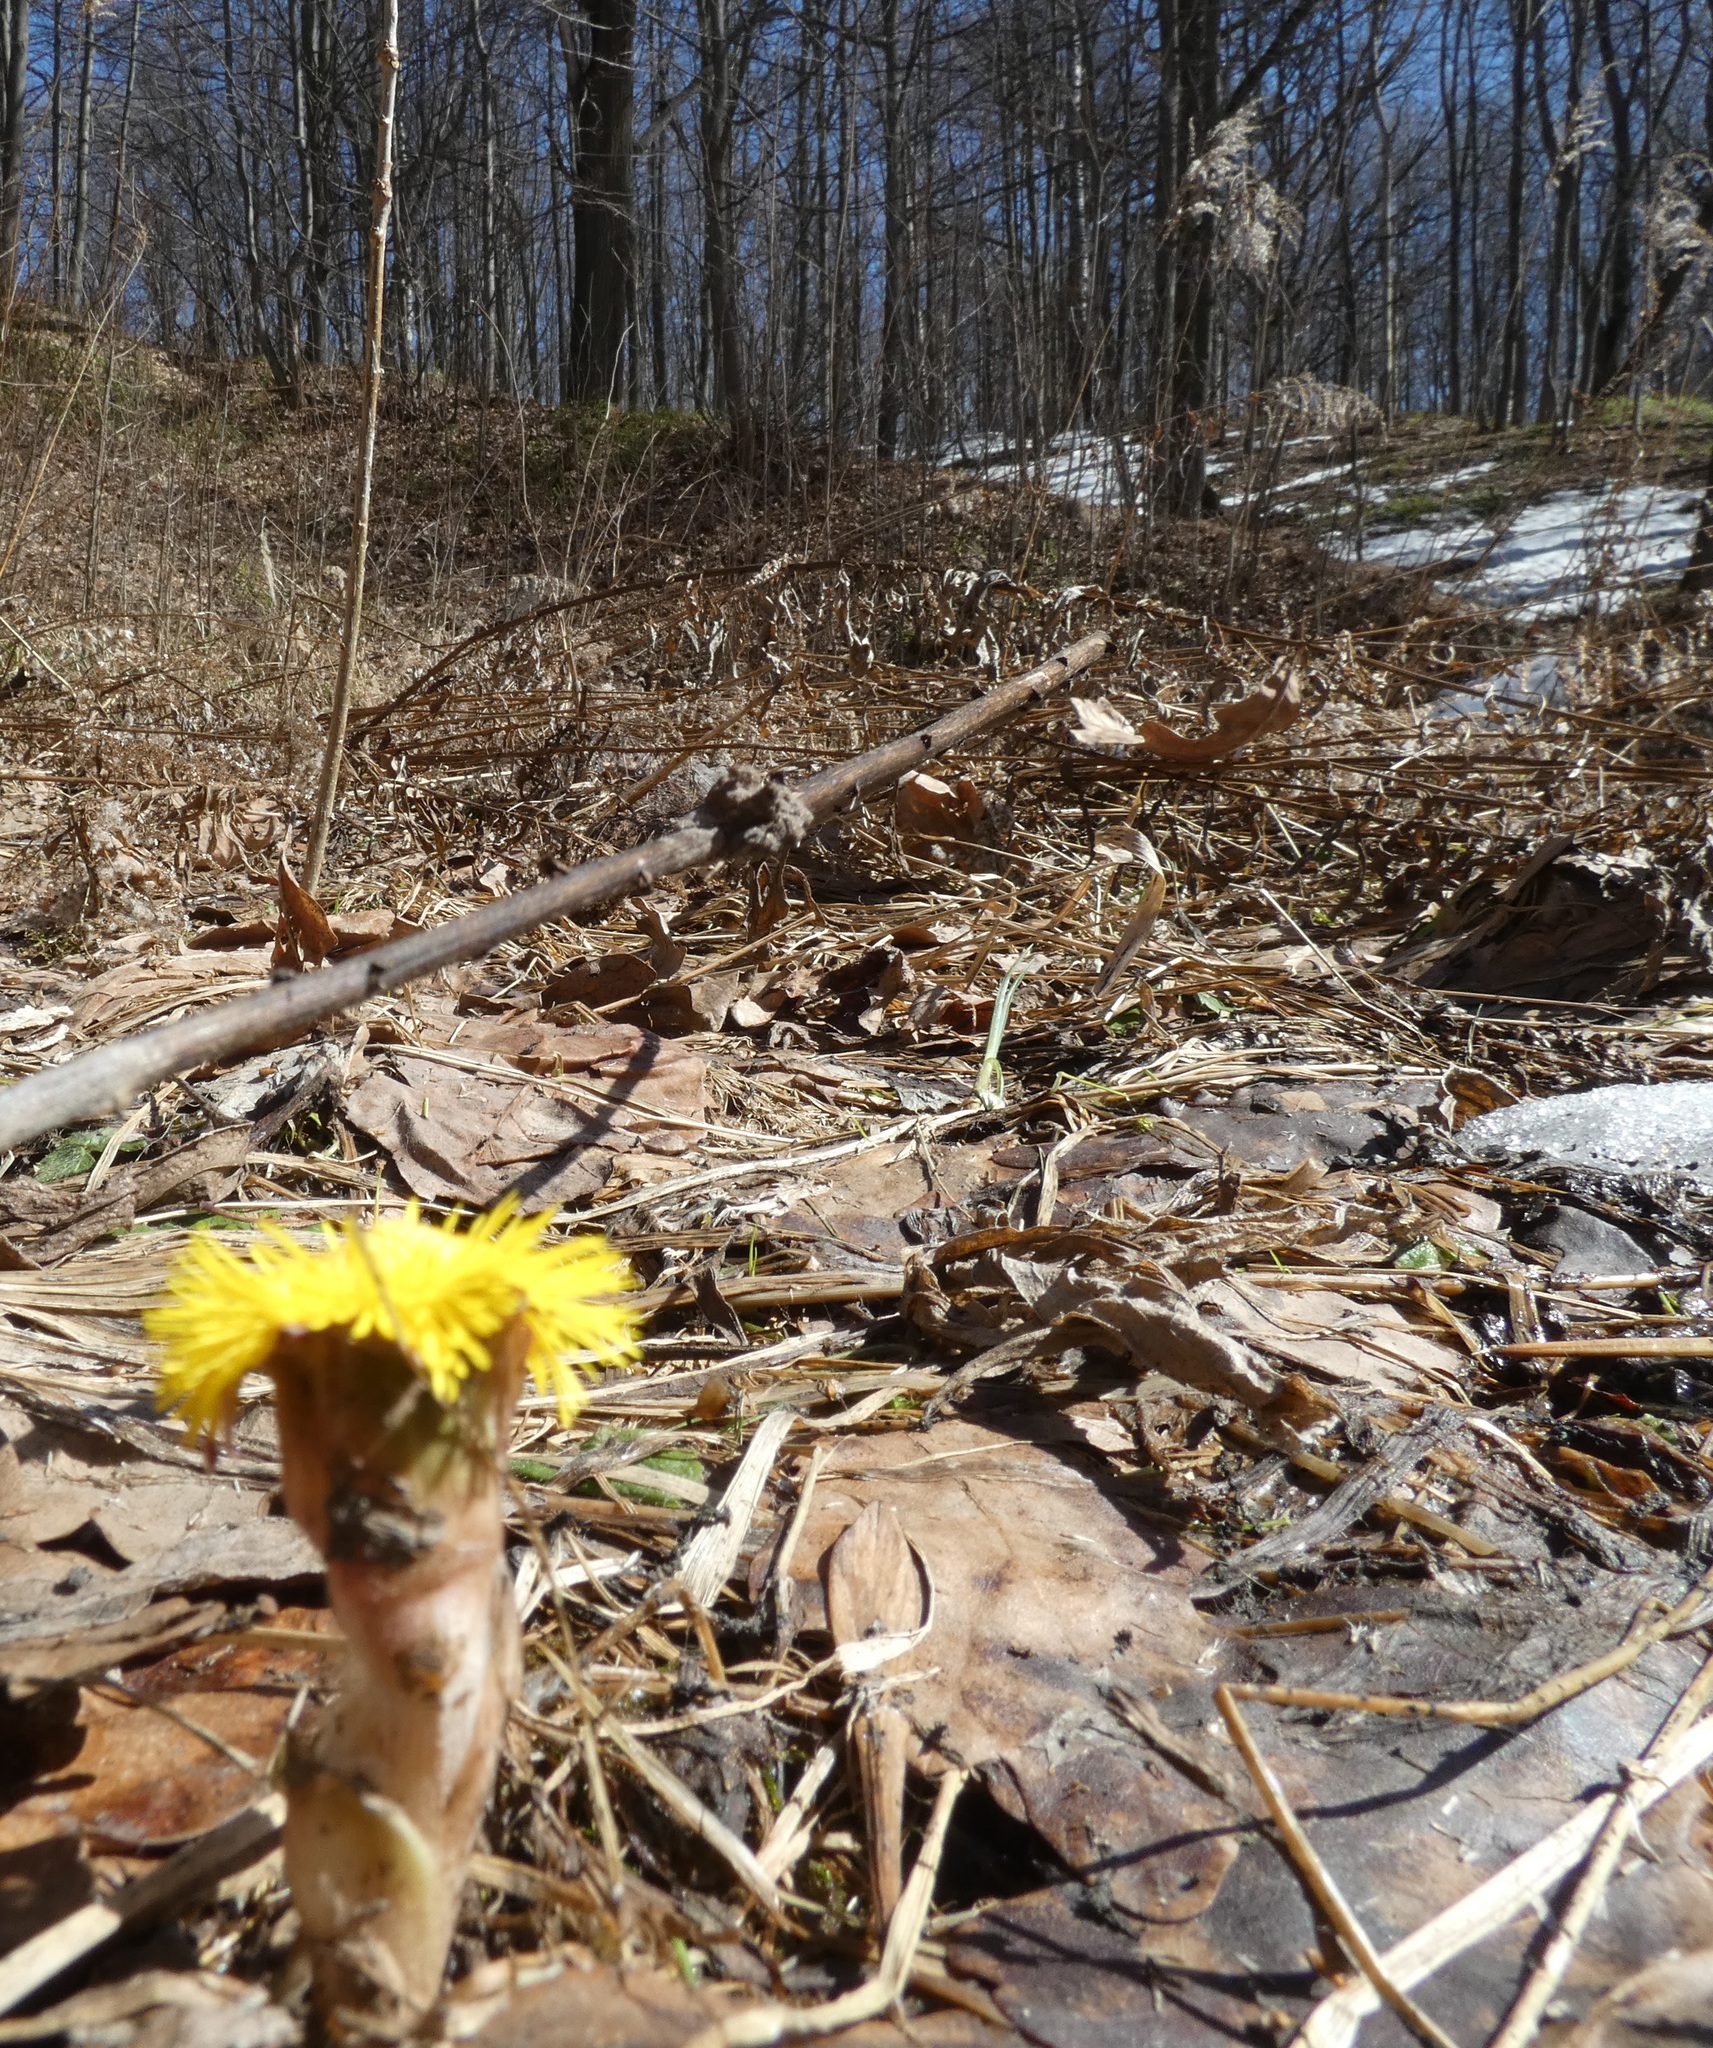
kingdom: Plantae
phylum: Tracheophyta
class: Magnoliopsida
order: Asterales
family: Asteraceae
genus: Tussilago
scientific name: Tussilago farfara
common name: Coltsfoot
